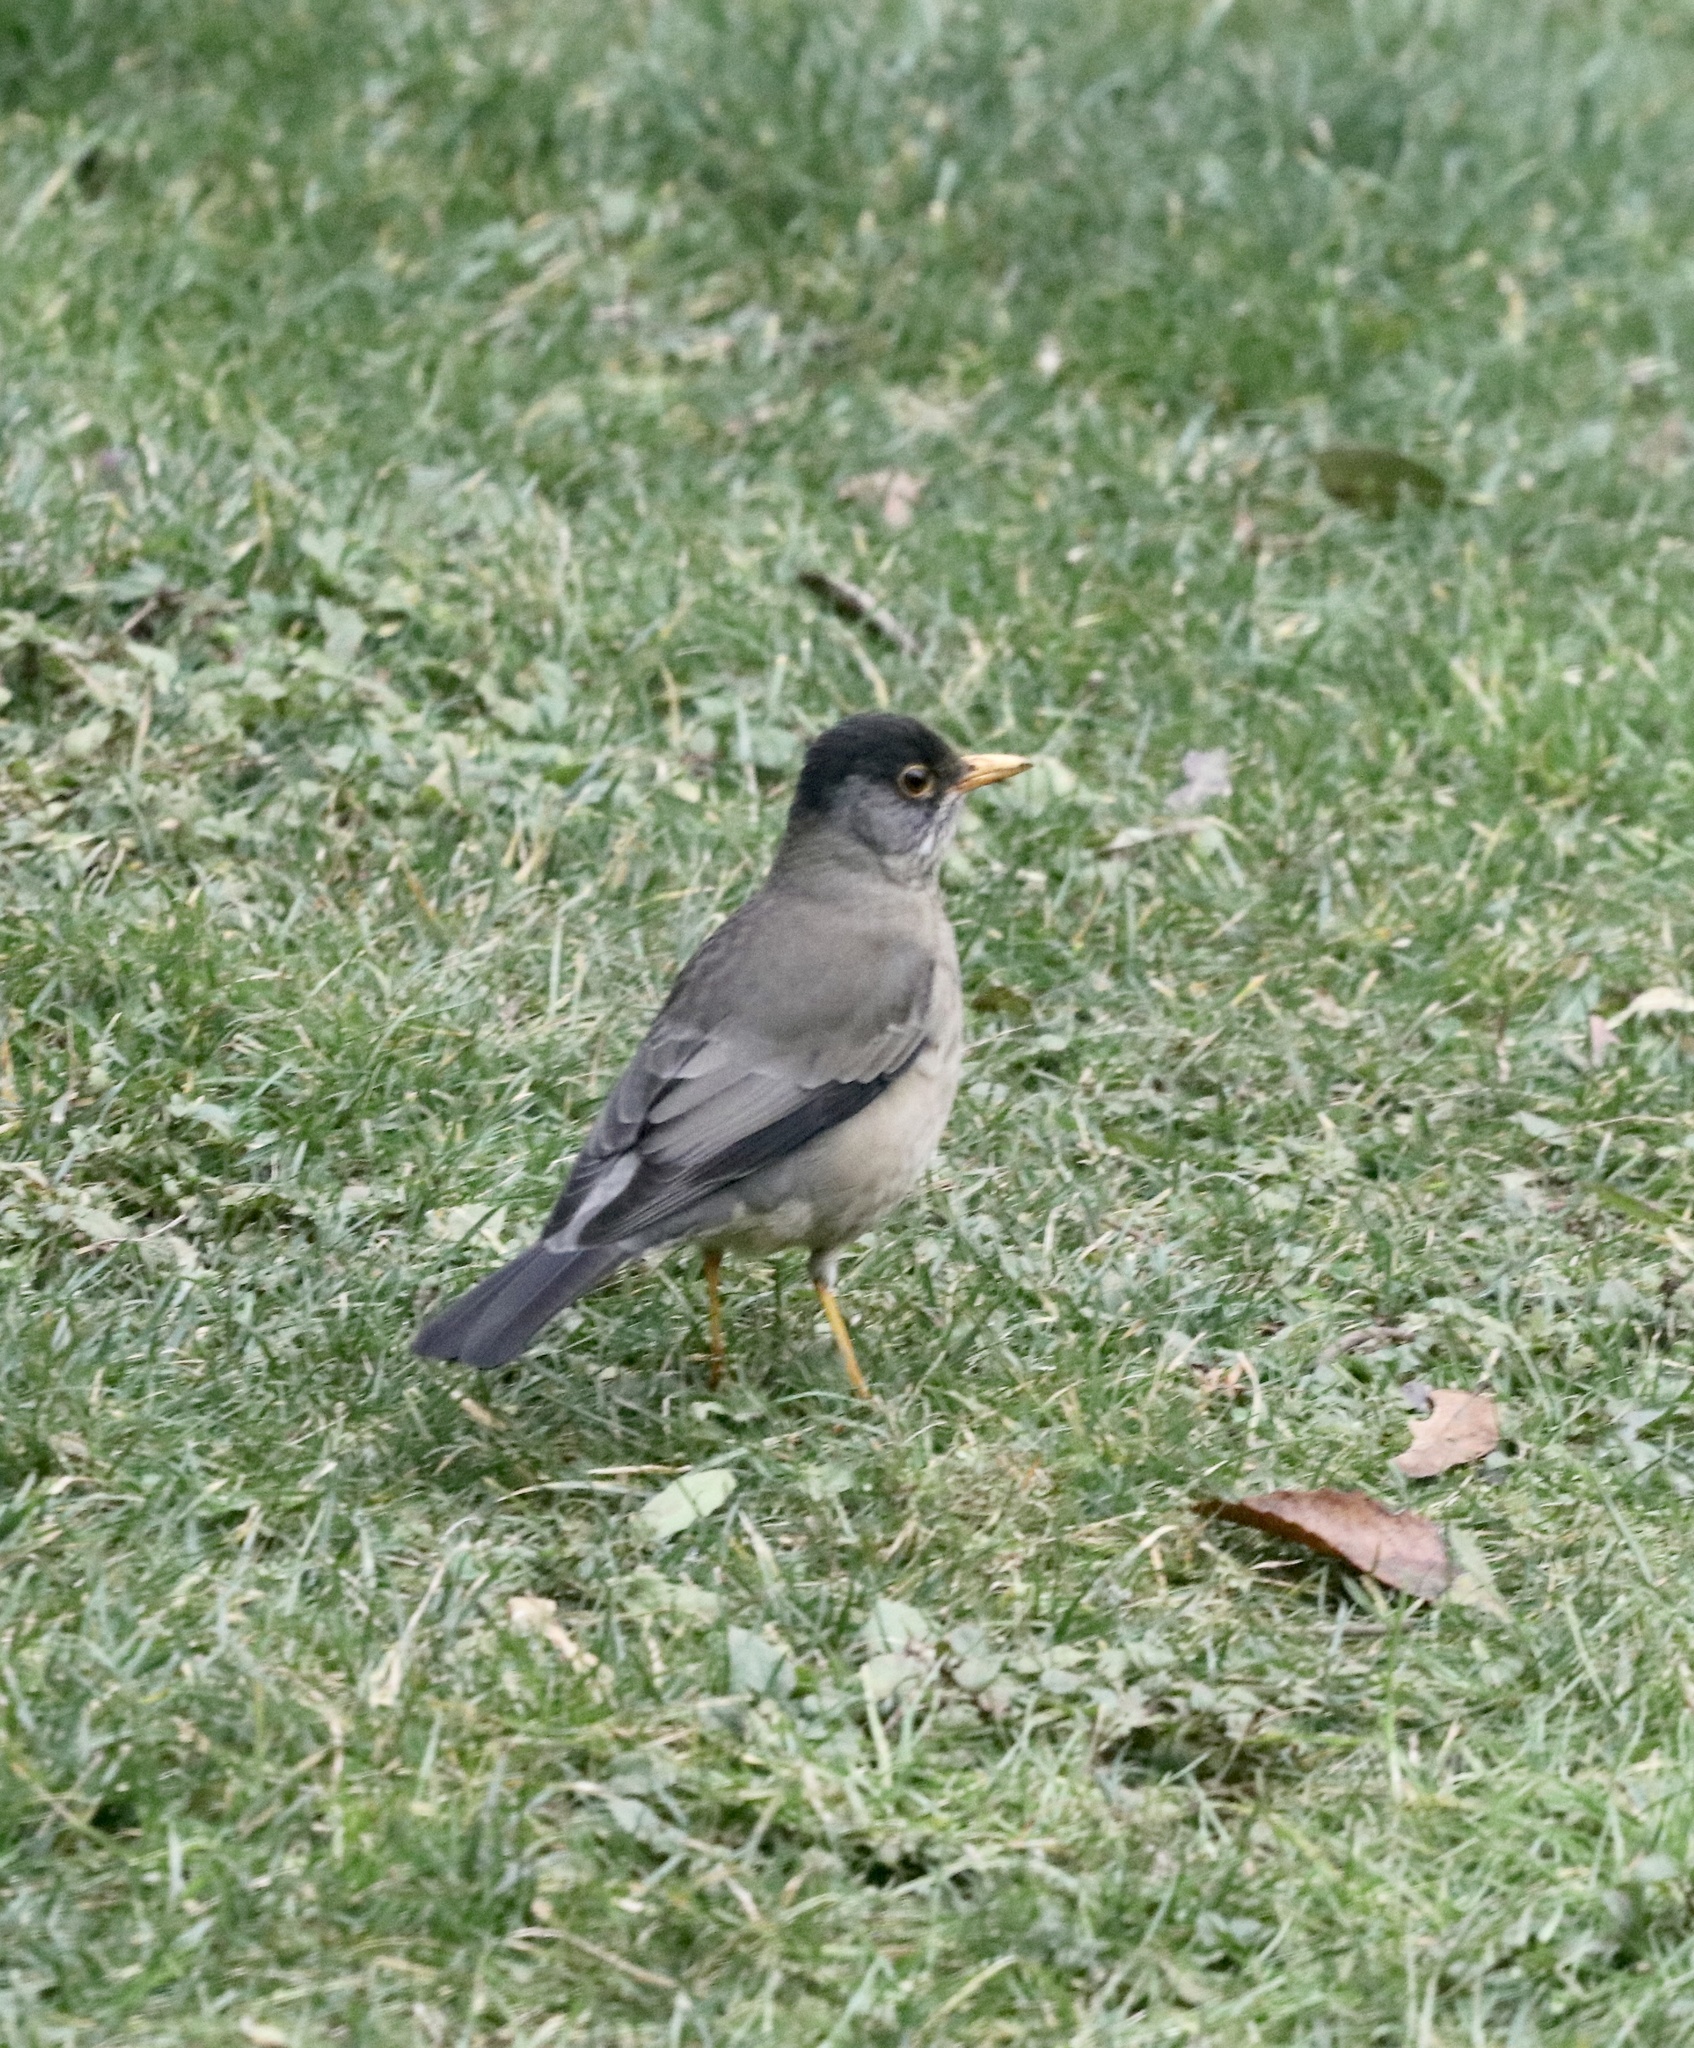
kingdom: Animalia
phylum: Chordata
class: Aves
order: Passeriformes
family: Turdidae
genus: Turdus
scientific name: Turdus falcklandii
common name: Austral thrush
